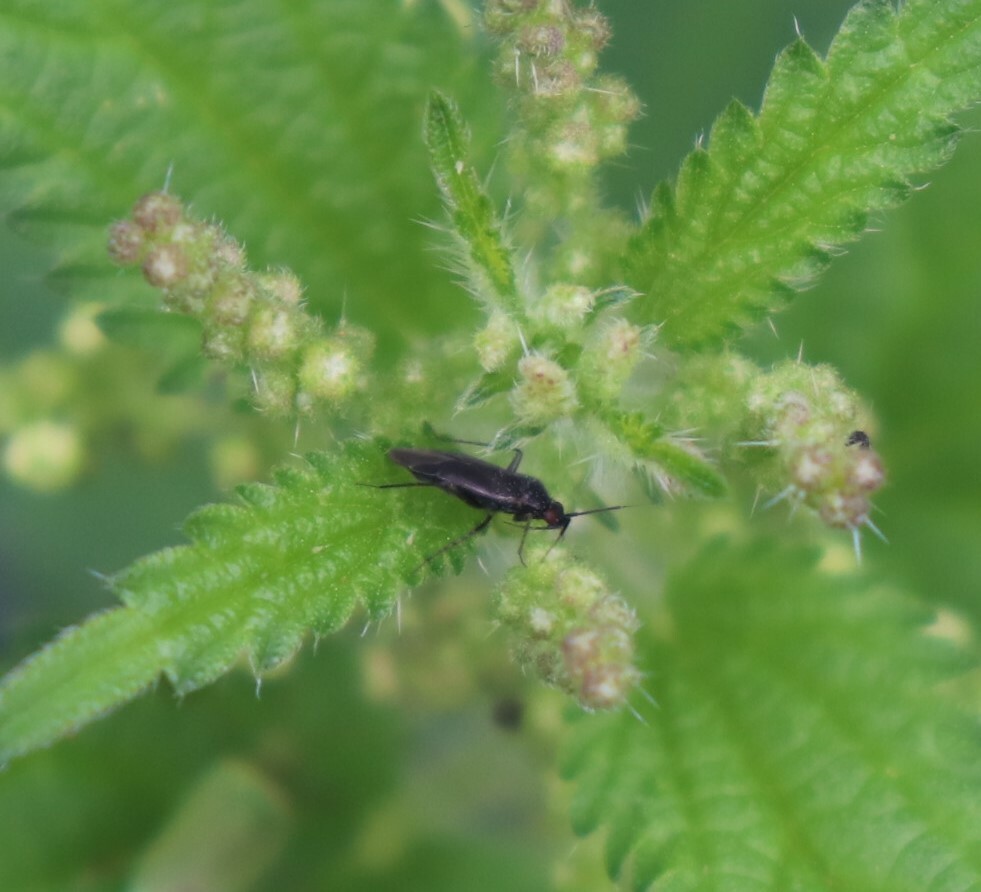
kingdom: Animalia
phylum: Arthropoda
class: Insecta
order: Hemiptera
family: Miridae
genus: Plagiognathus
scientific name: Plagiognathus arbustorum
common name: Plant bug
